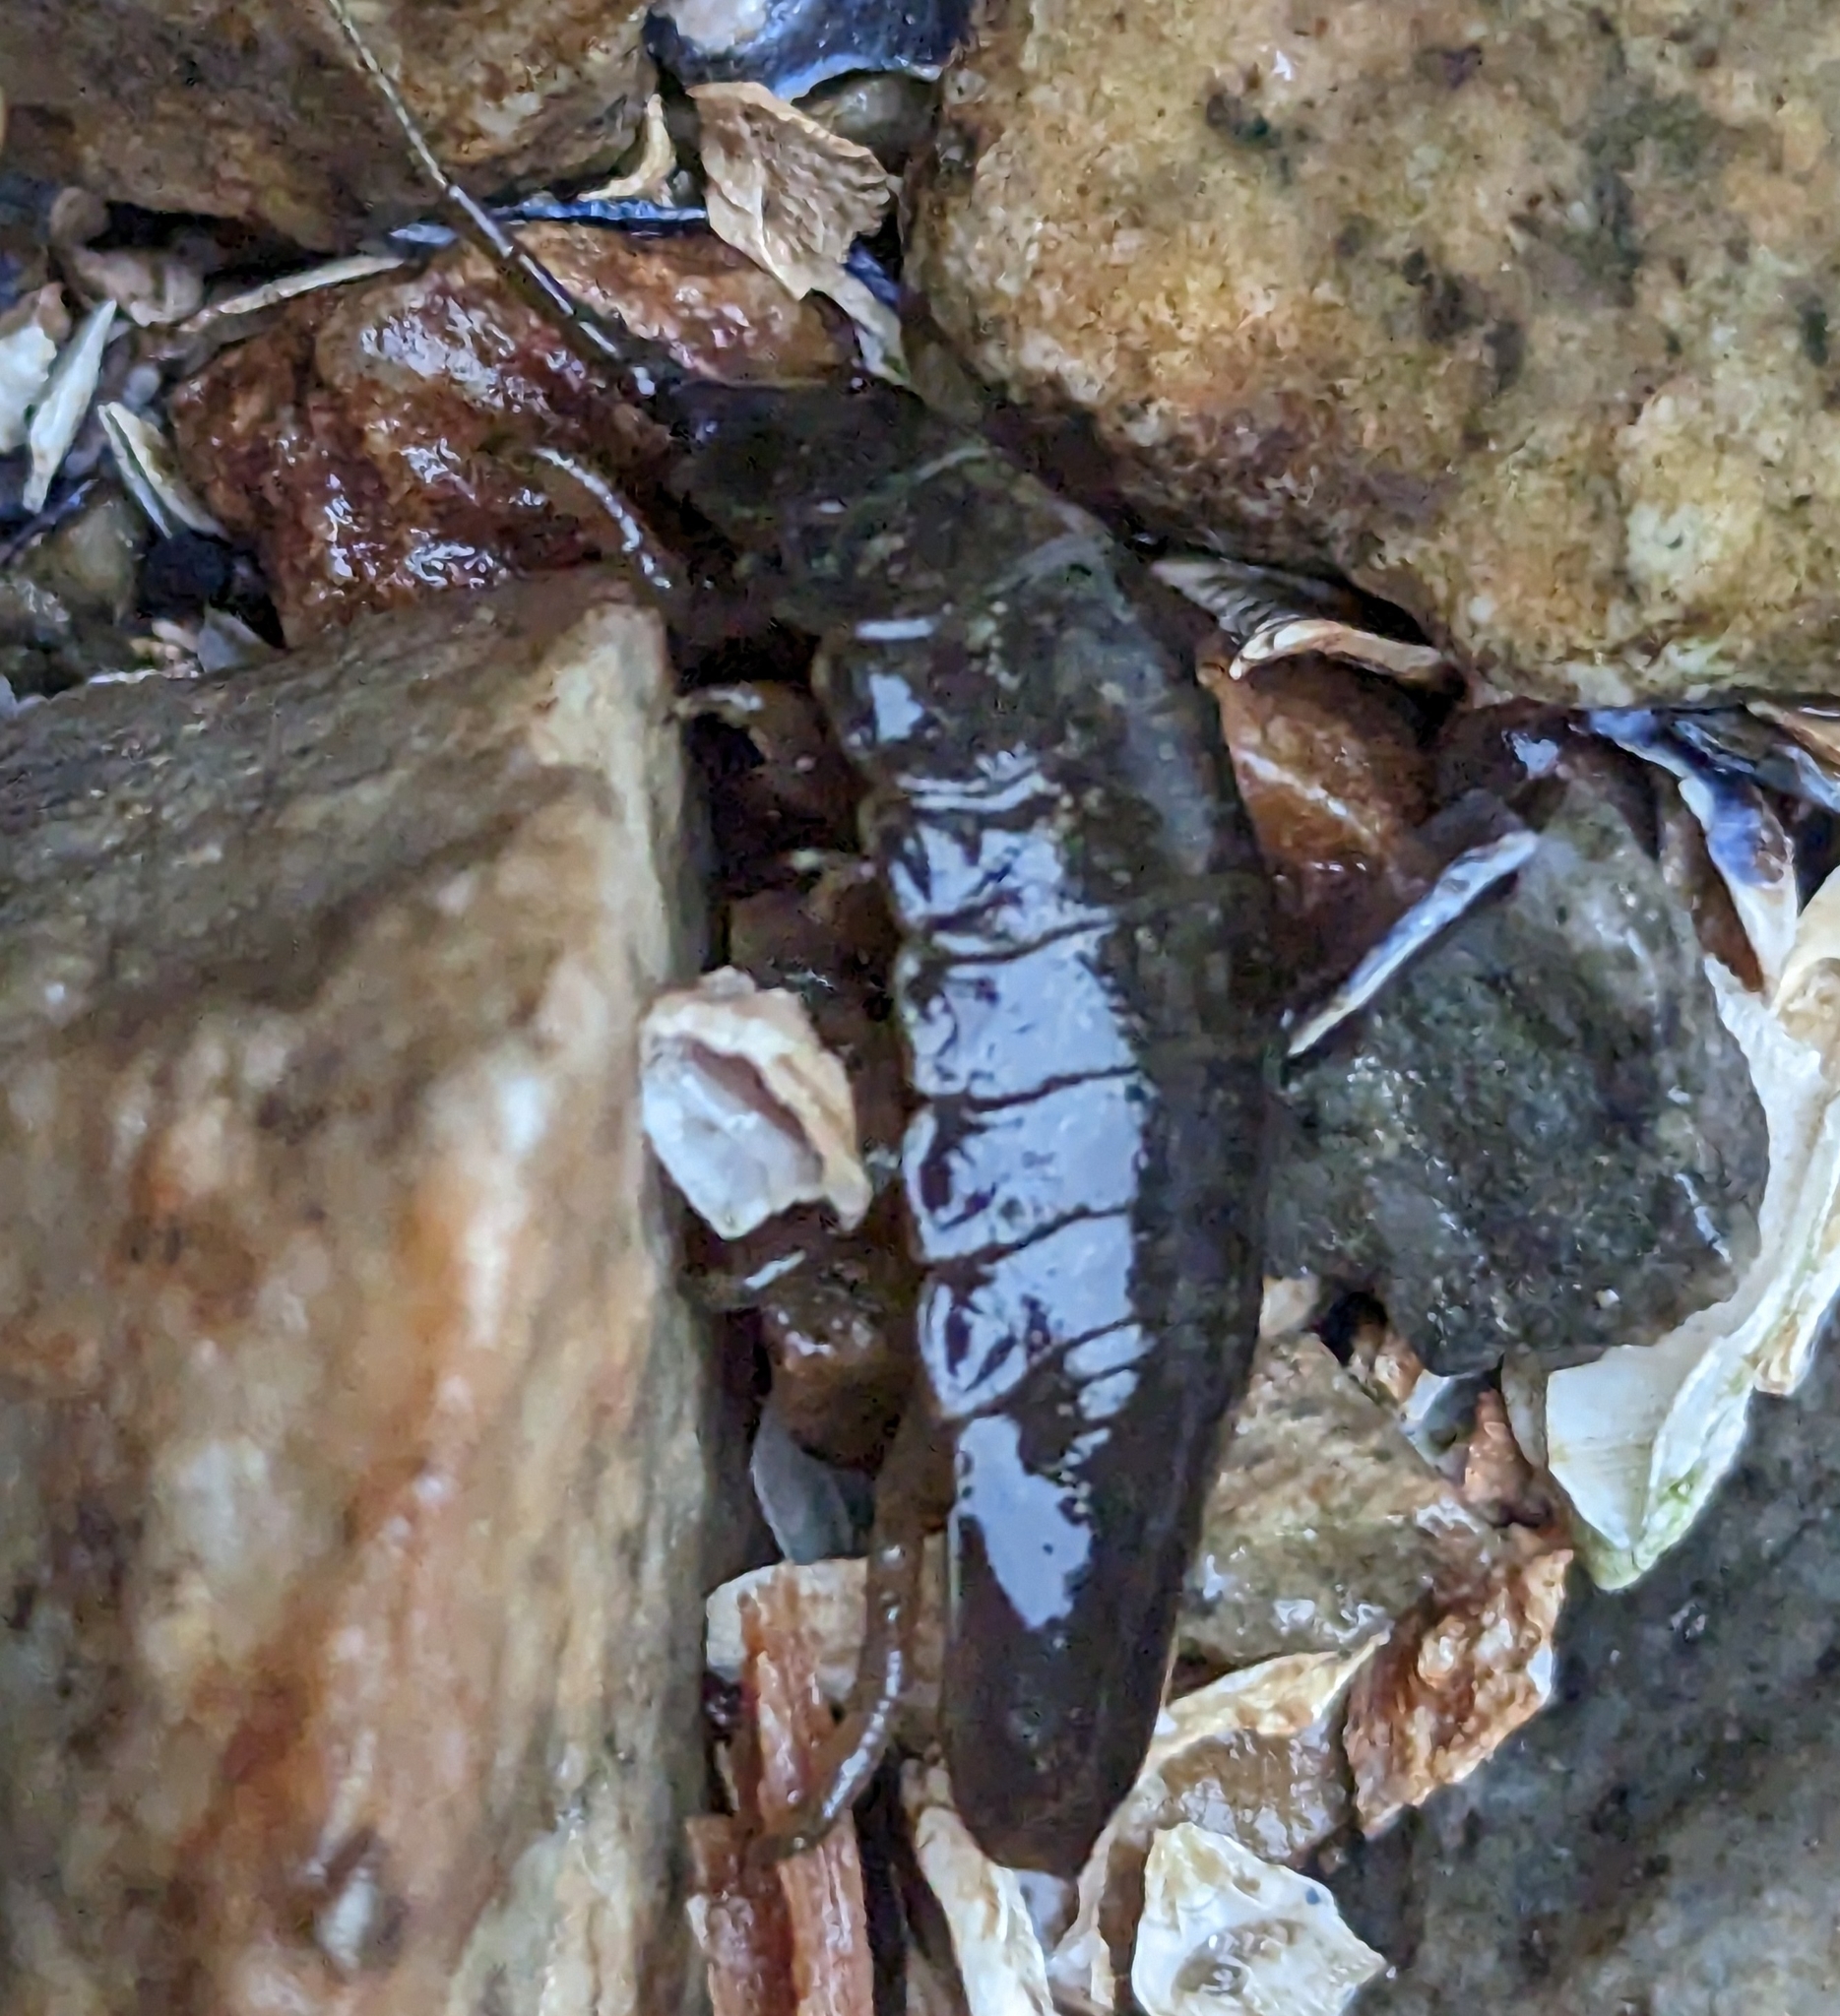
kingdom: Animalia
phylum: Arthropoda
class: Malacostraca
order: Isopoda
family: Idoteidae
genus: Pentidotea
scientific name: Pentidotea wosnesenskii
